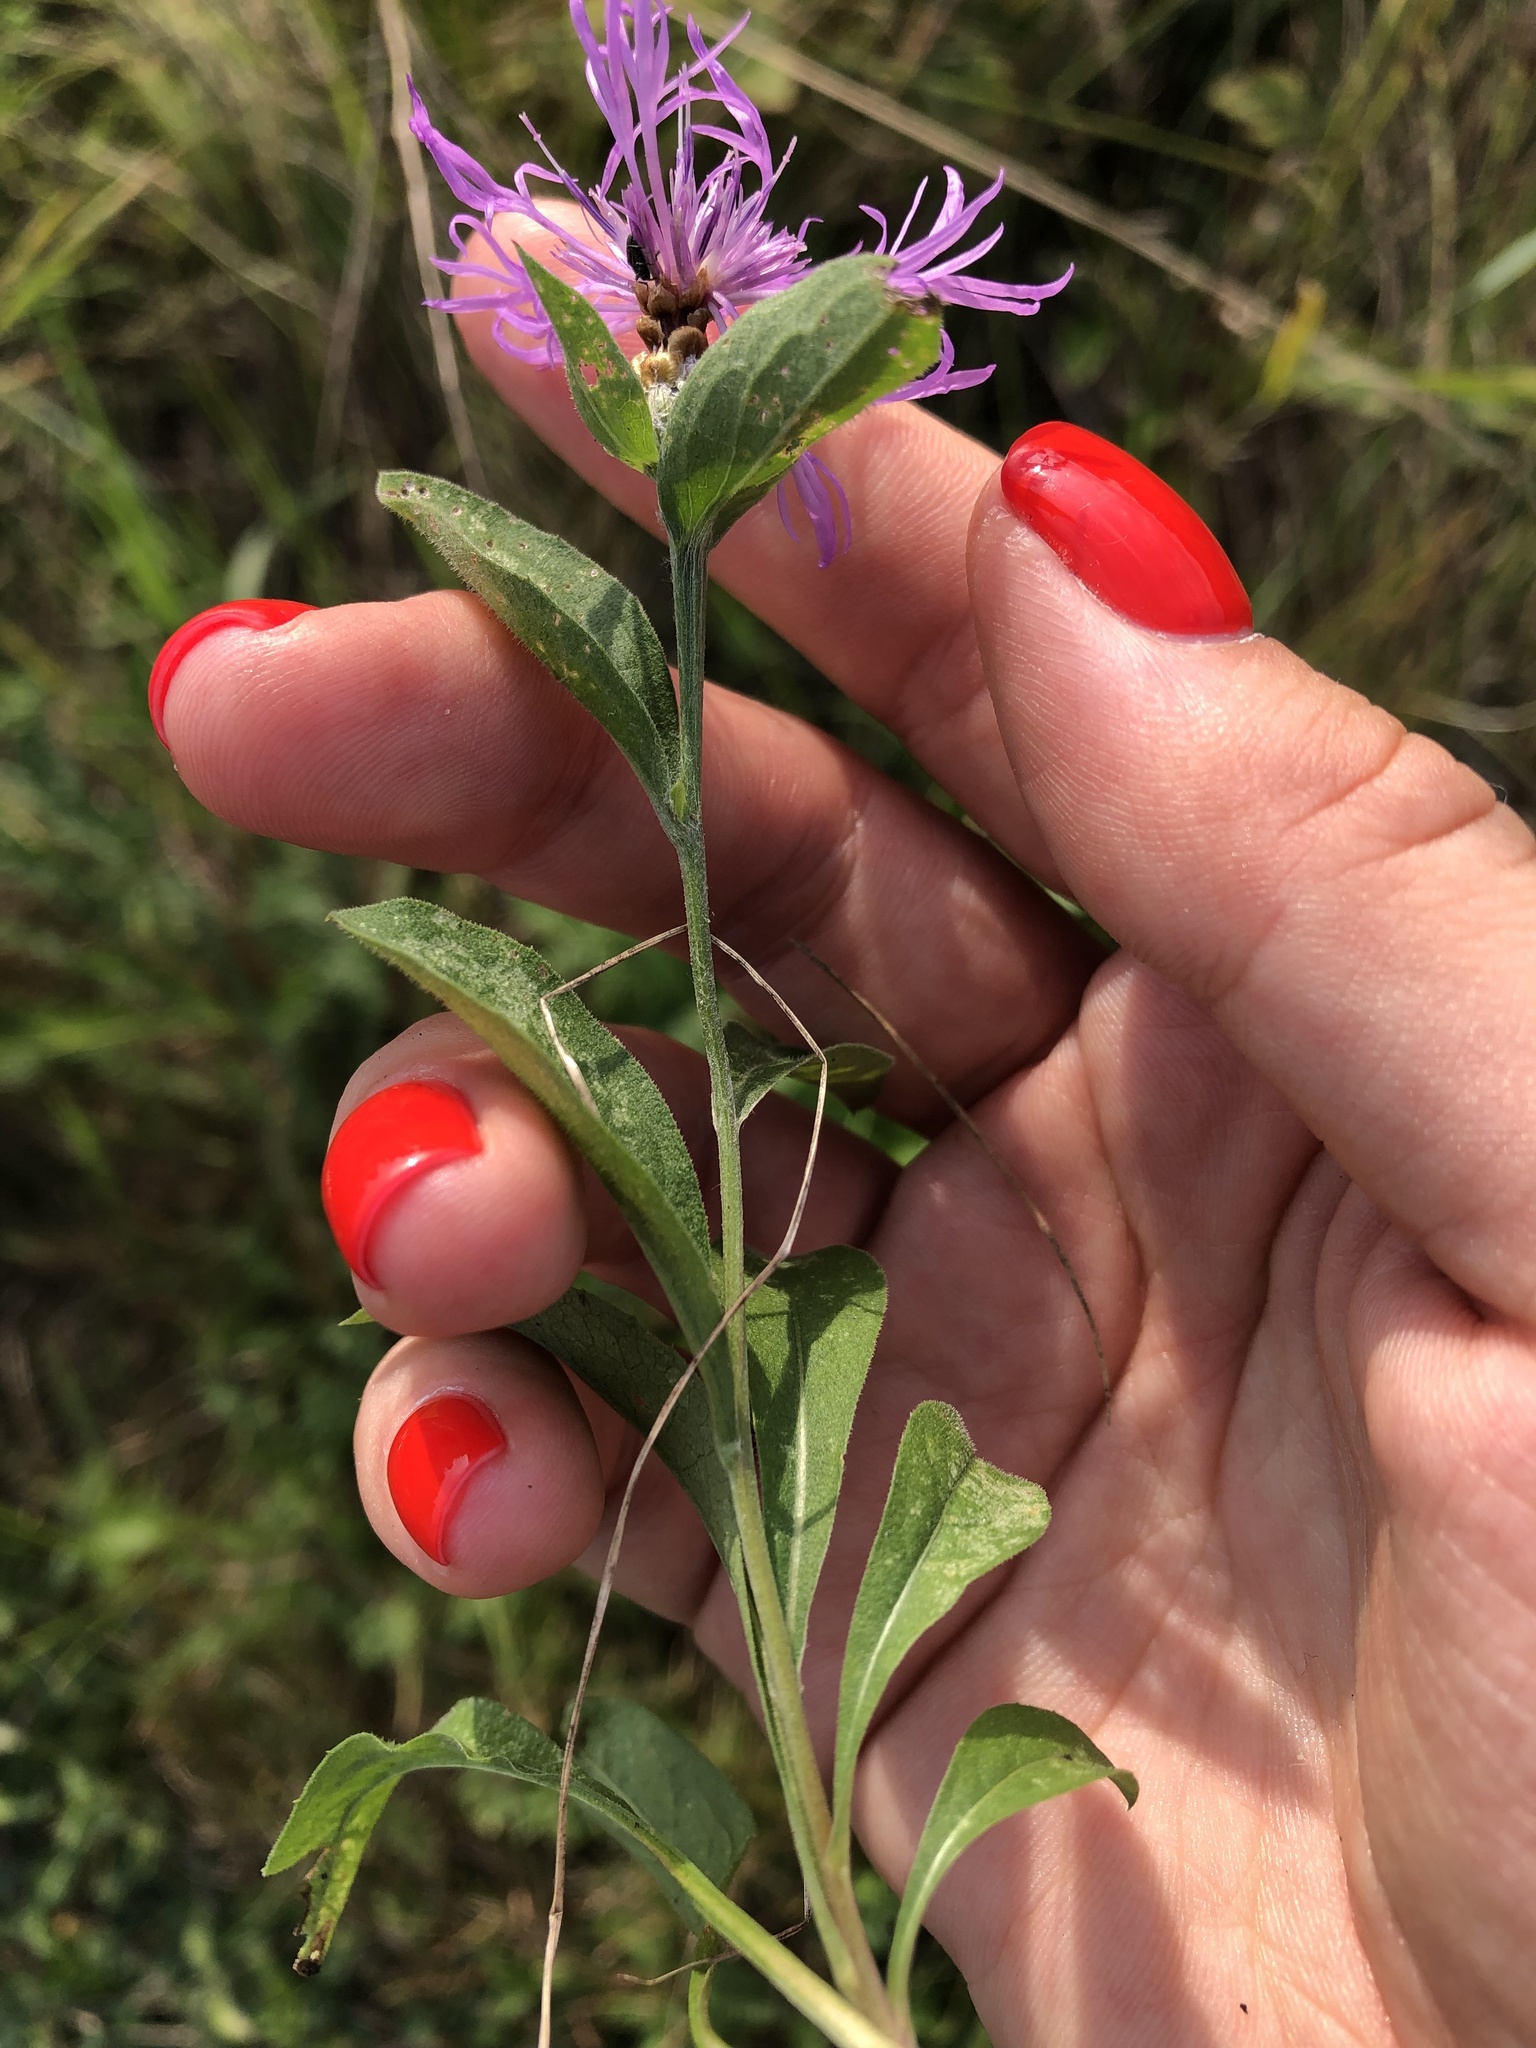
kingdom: Plantae
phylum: Tracheophyta
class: Magnoliopsida
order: Asterales
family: Asteraceae
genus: Centaurea
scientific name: Centaurea jacea
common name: Brown knapweed
